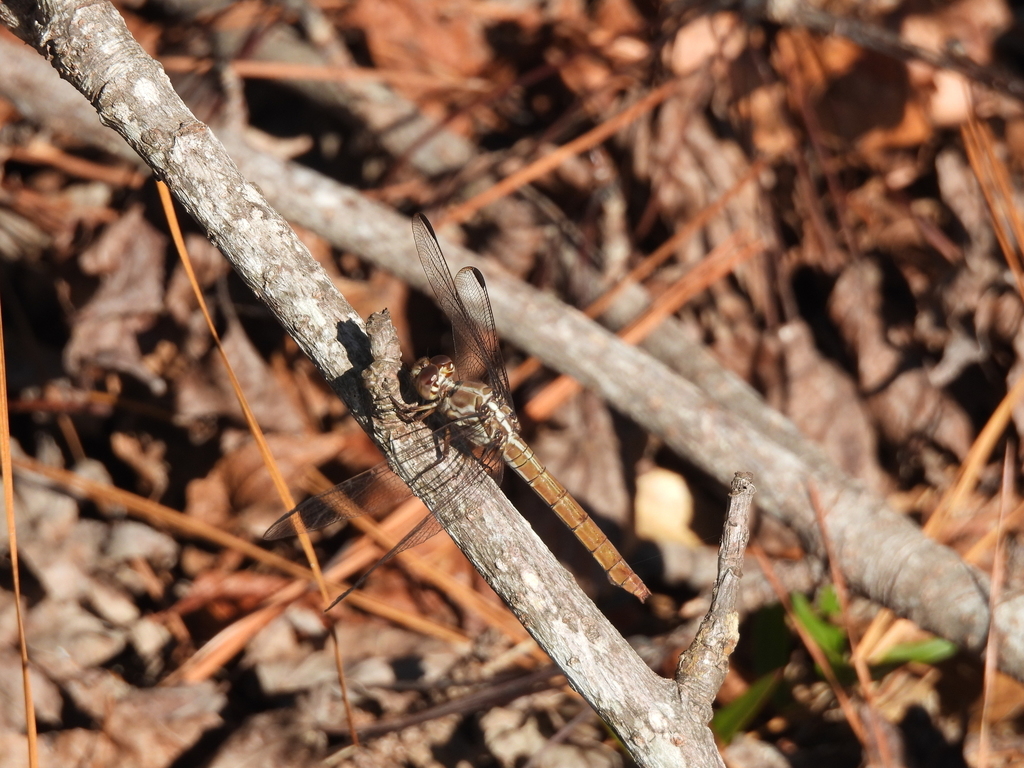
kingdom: Animalia
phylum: Arthropoda
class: Insecta
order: Odonata
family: Libellulidae
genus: Orthemis
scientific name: Orthemis ferruginea
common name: Roseate skimmer
